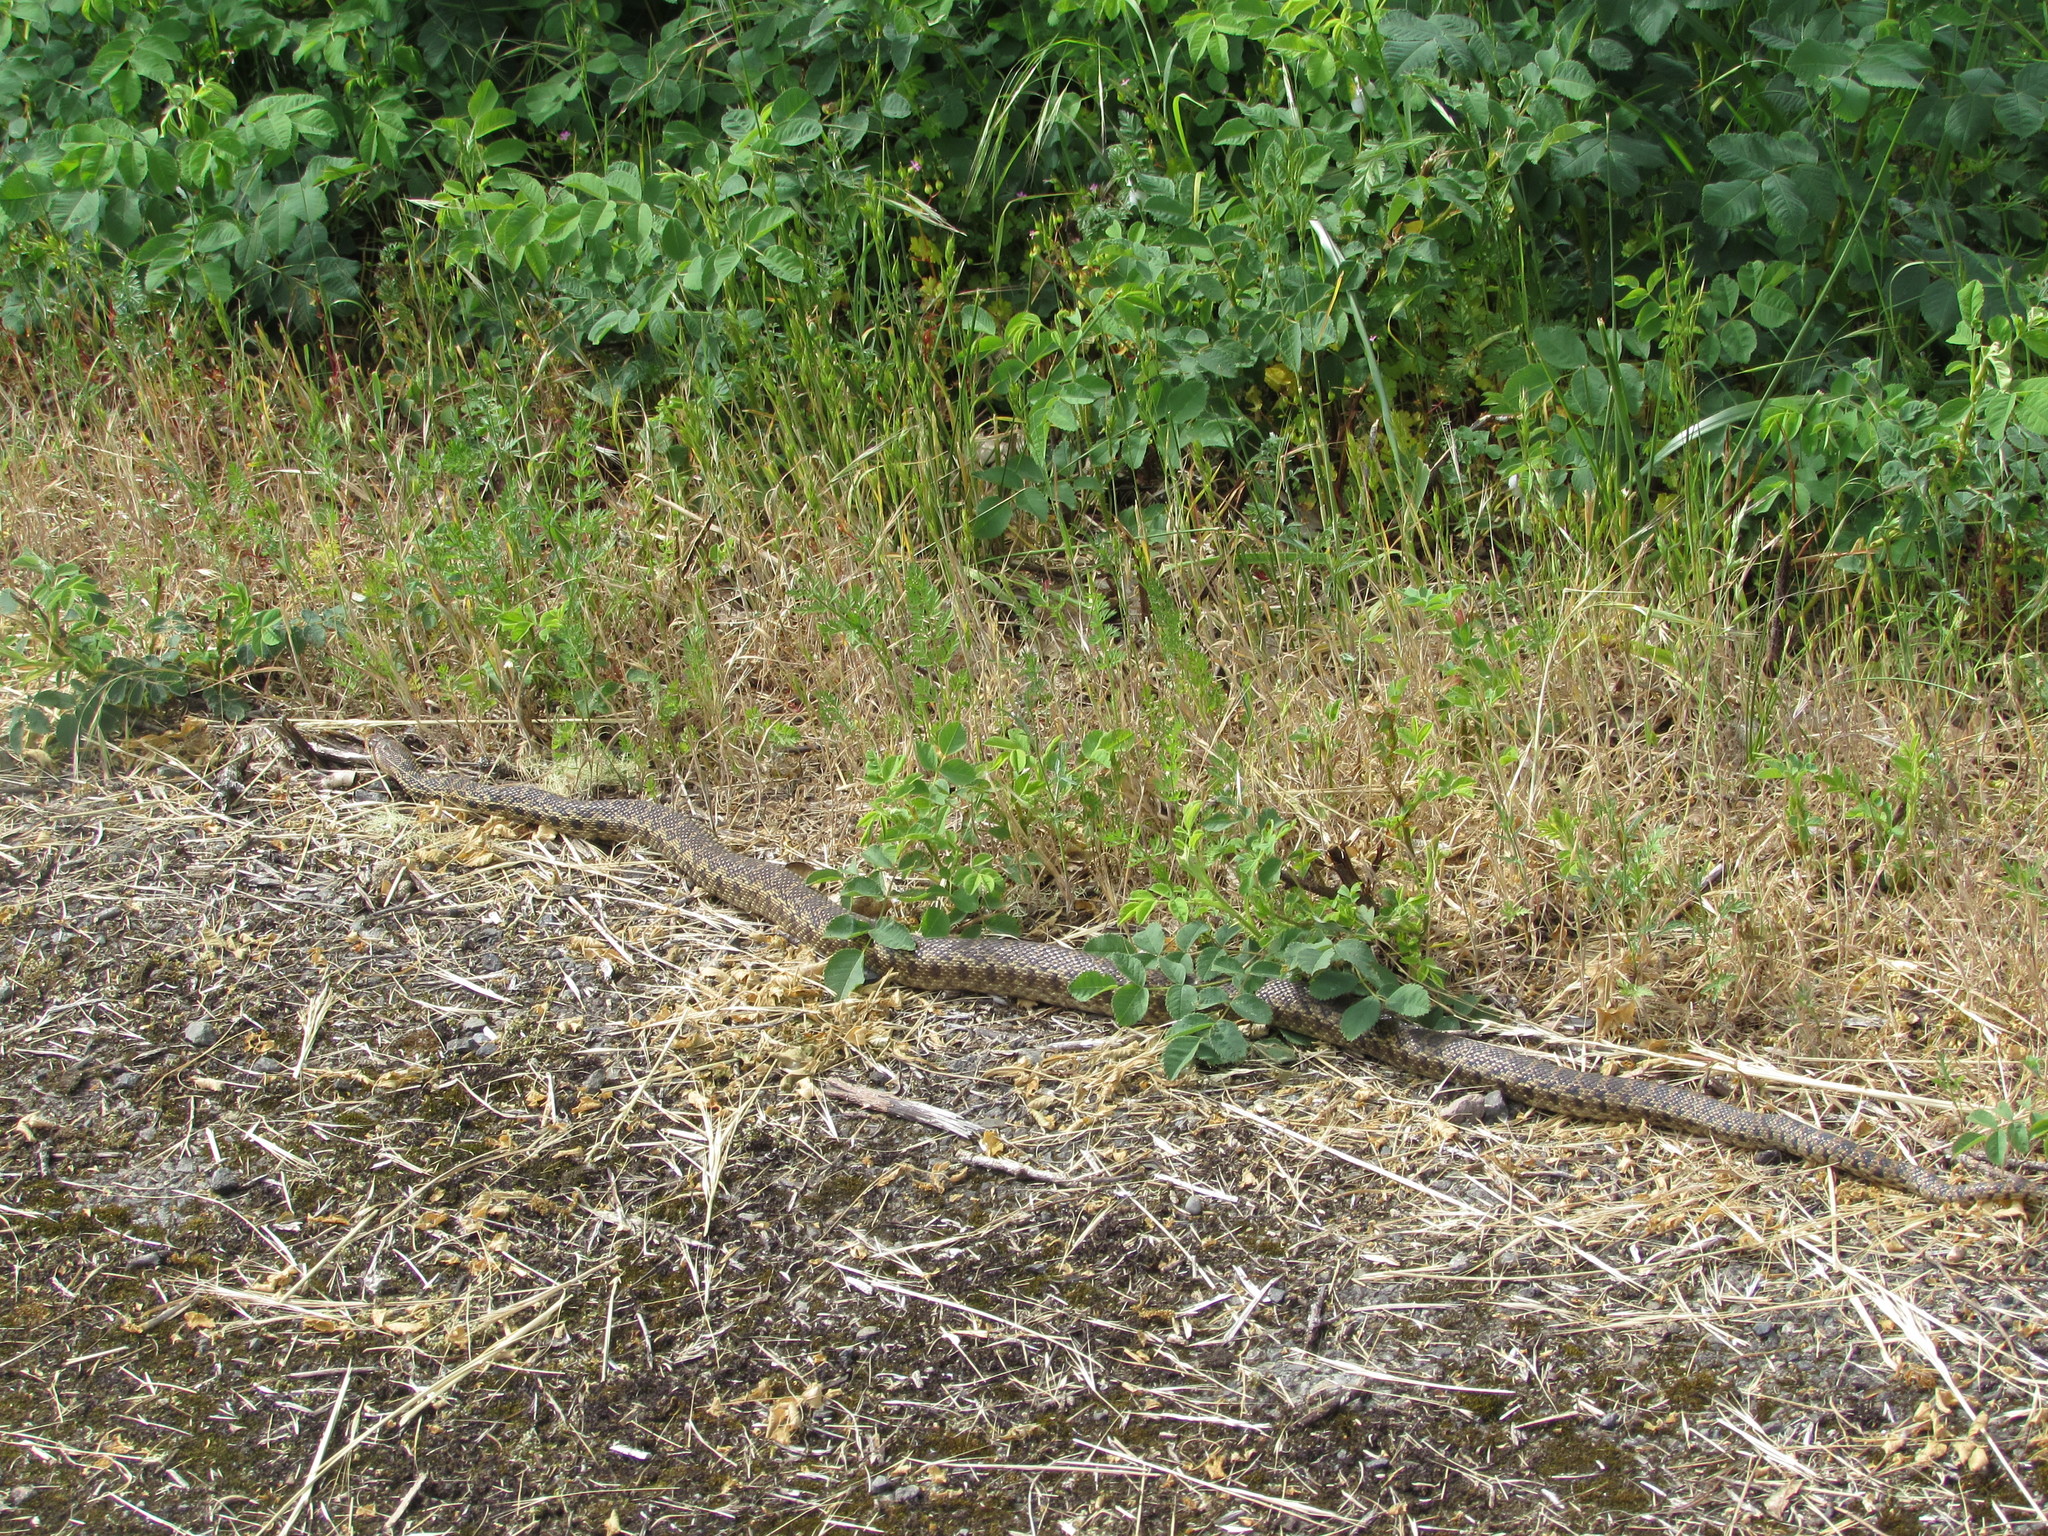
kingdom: Animalia
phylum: Chordata
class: Squamata
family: Colubridae
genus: Pituophis
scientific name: Pituophis catenifer
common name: Gopher snake
